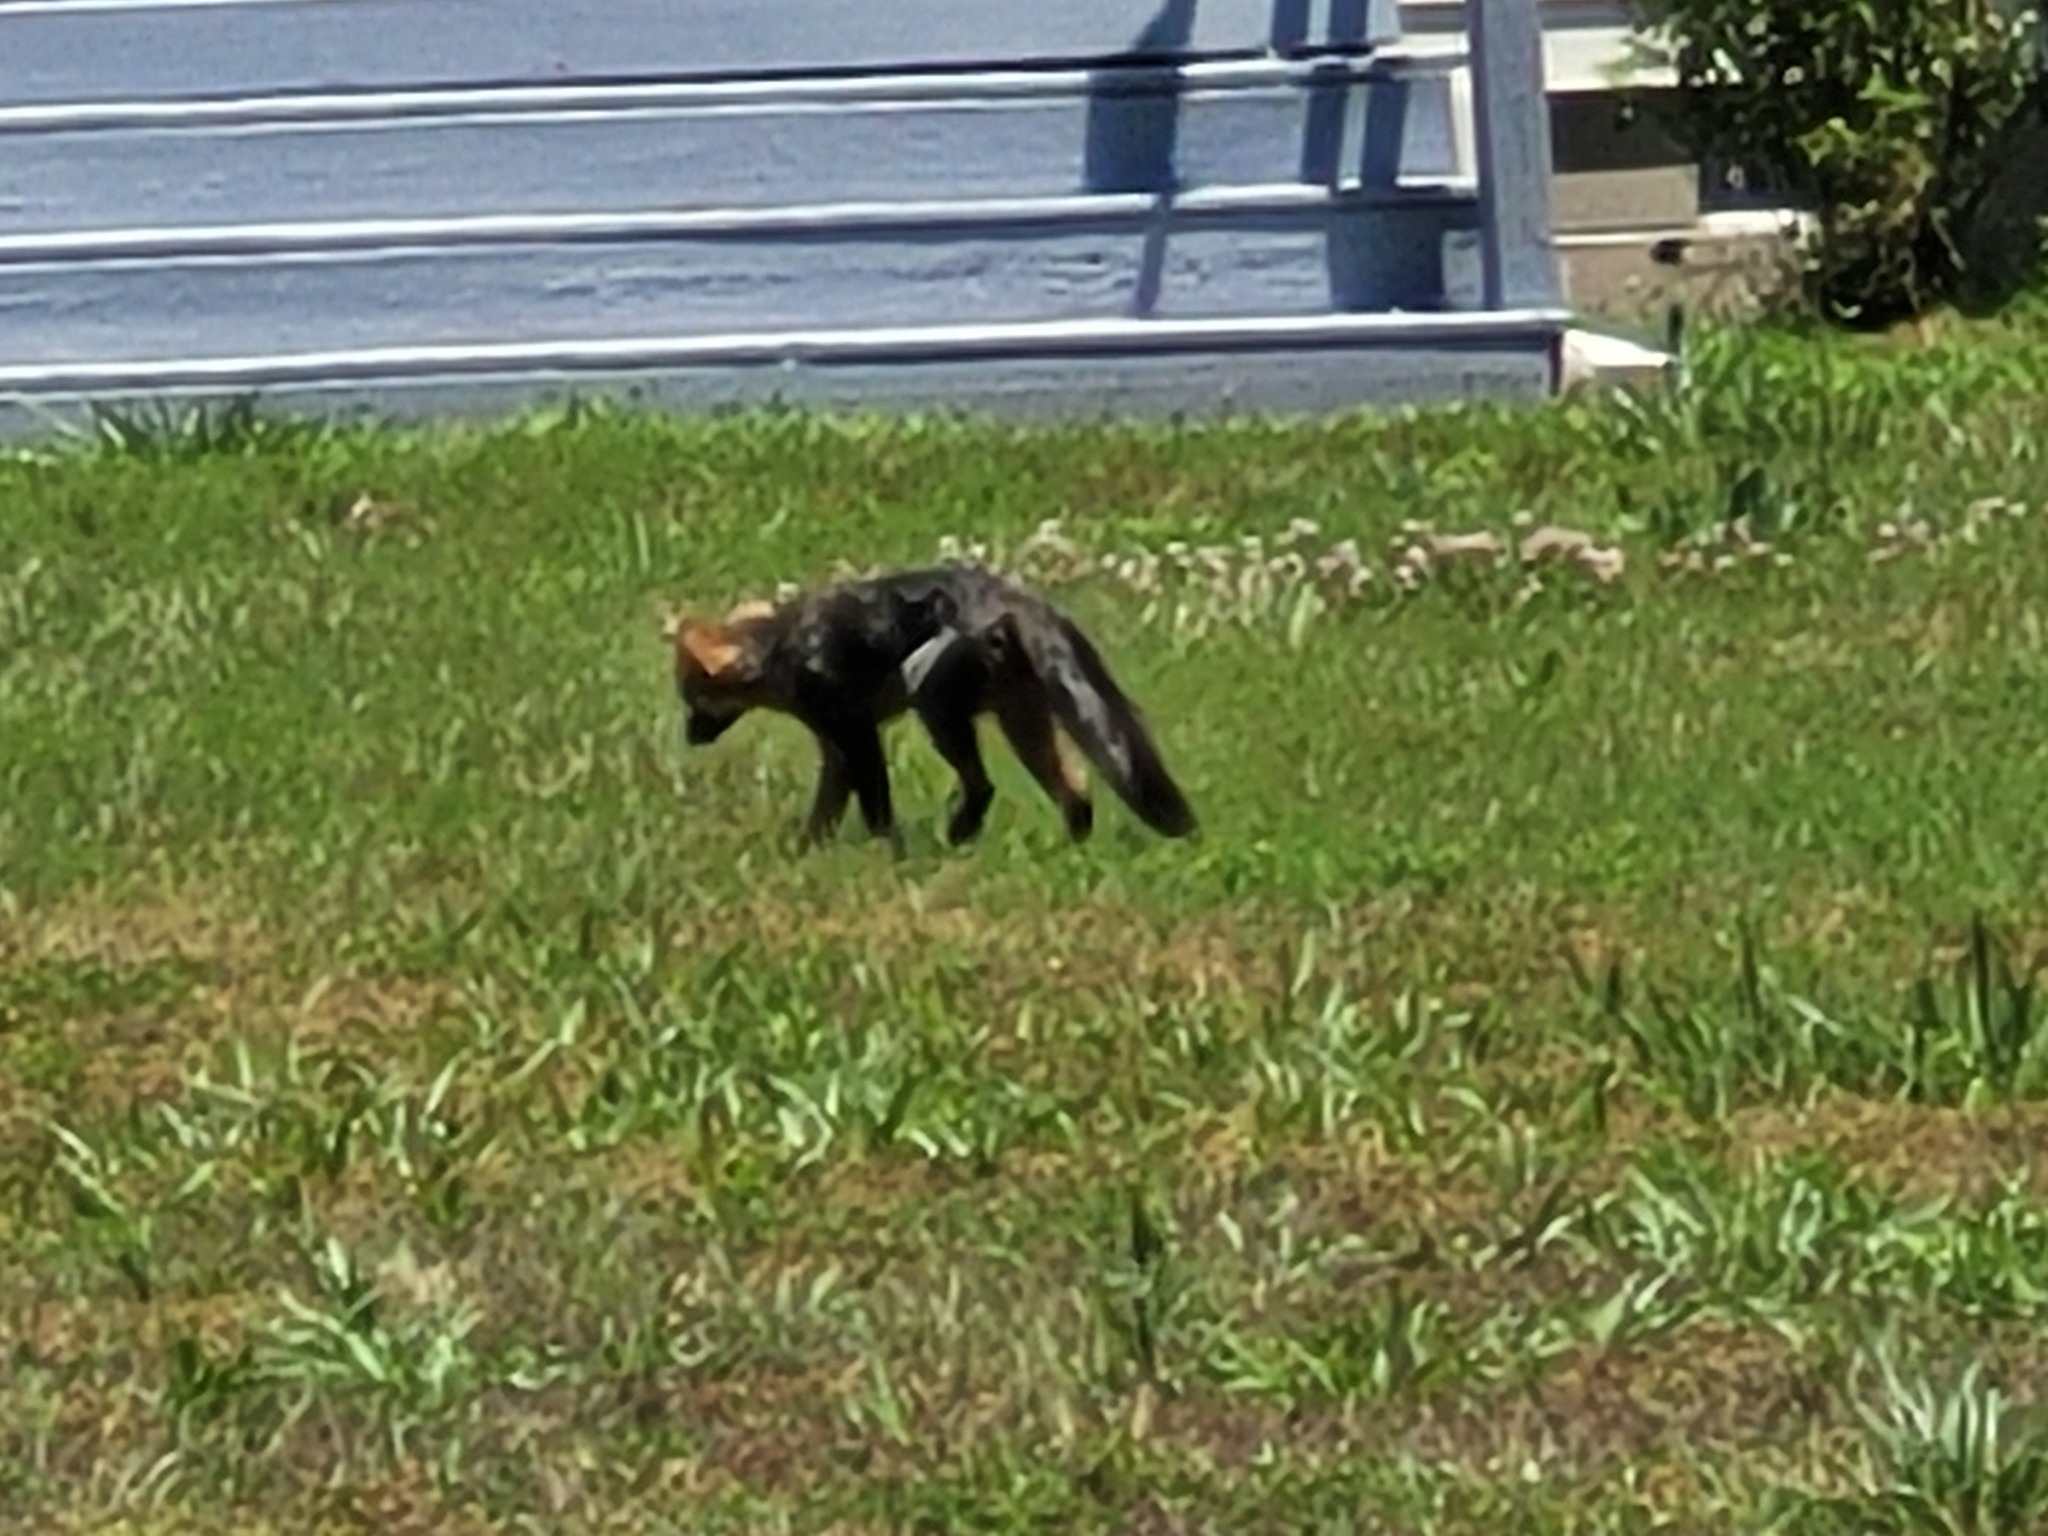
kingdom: Animalia
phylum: Chordata
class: Mammalia
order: Carnivora
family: Canidae
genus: Vulpes
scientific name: Vulpes vulpes
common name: Red fox
